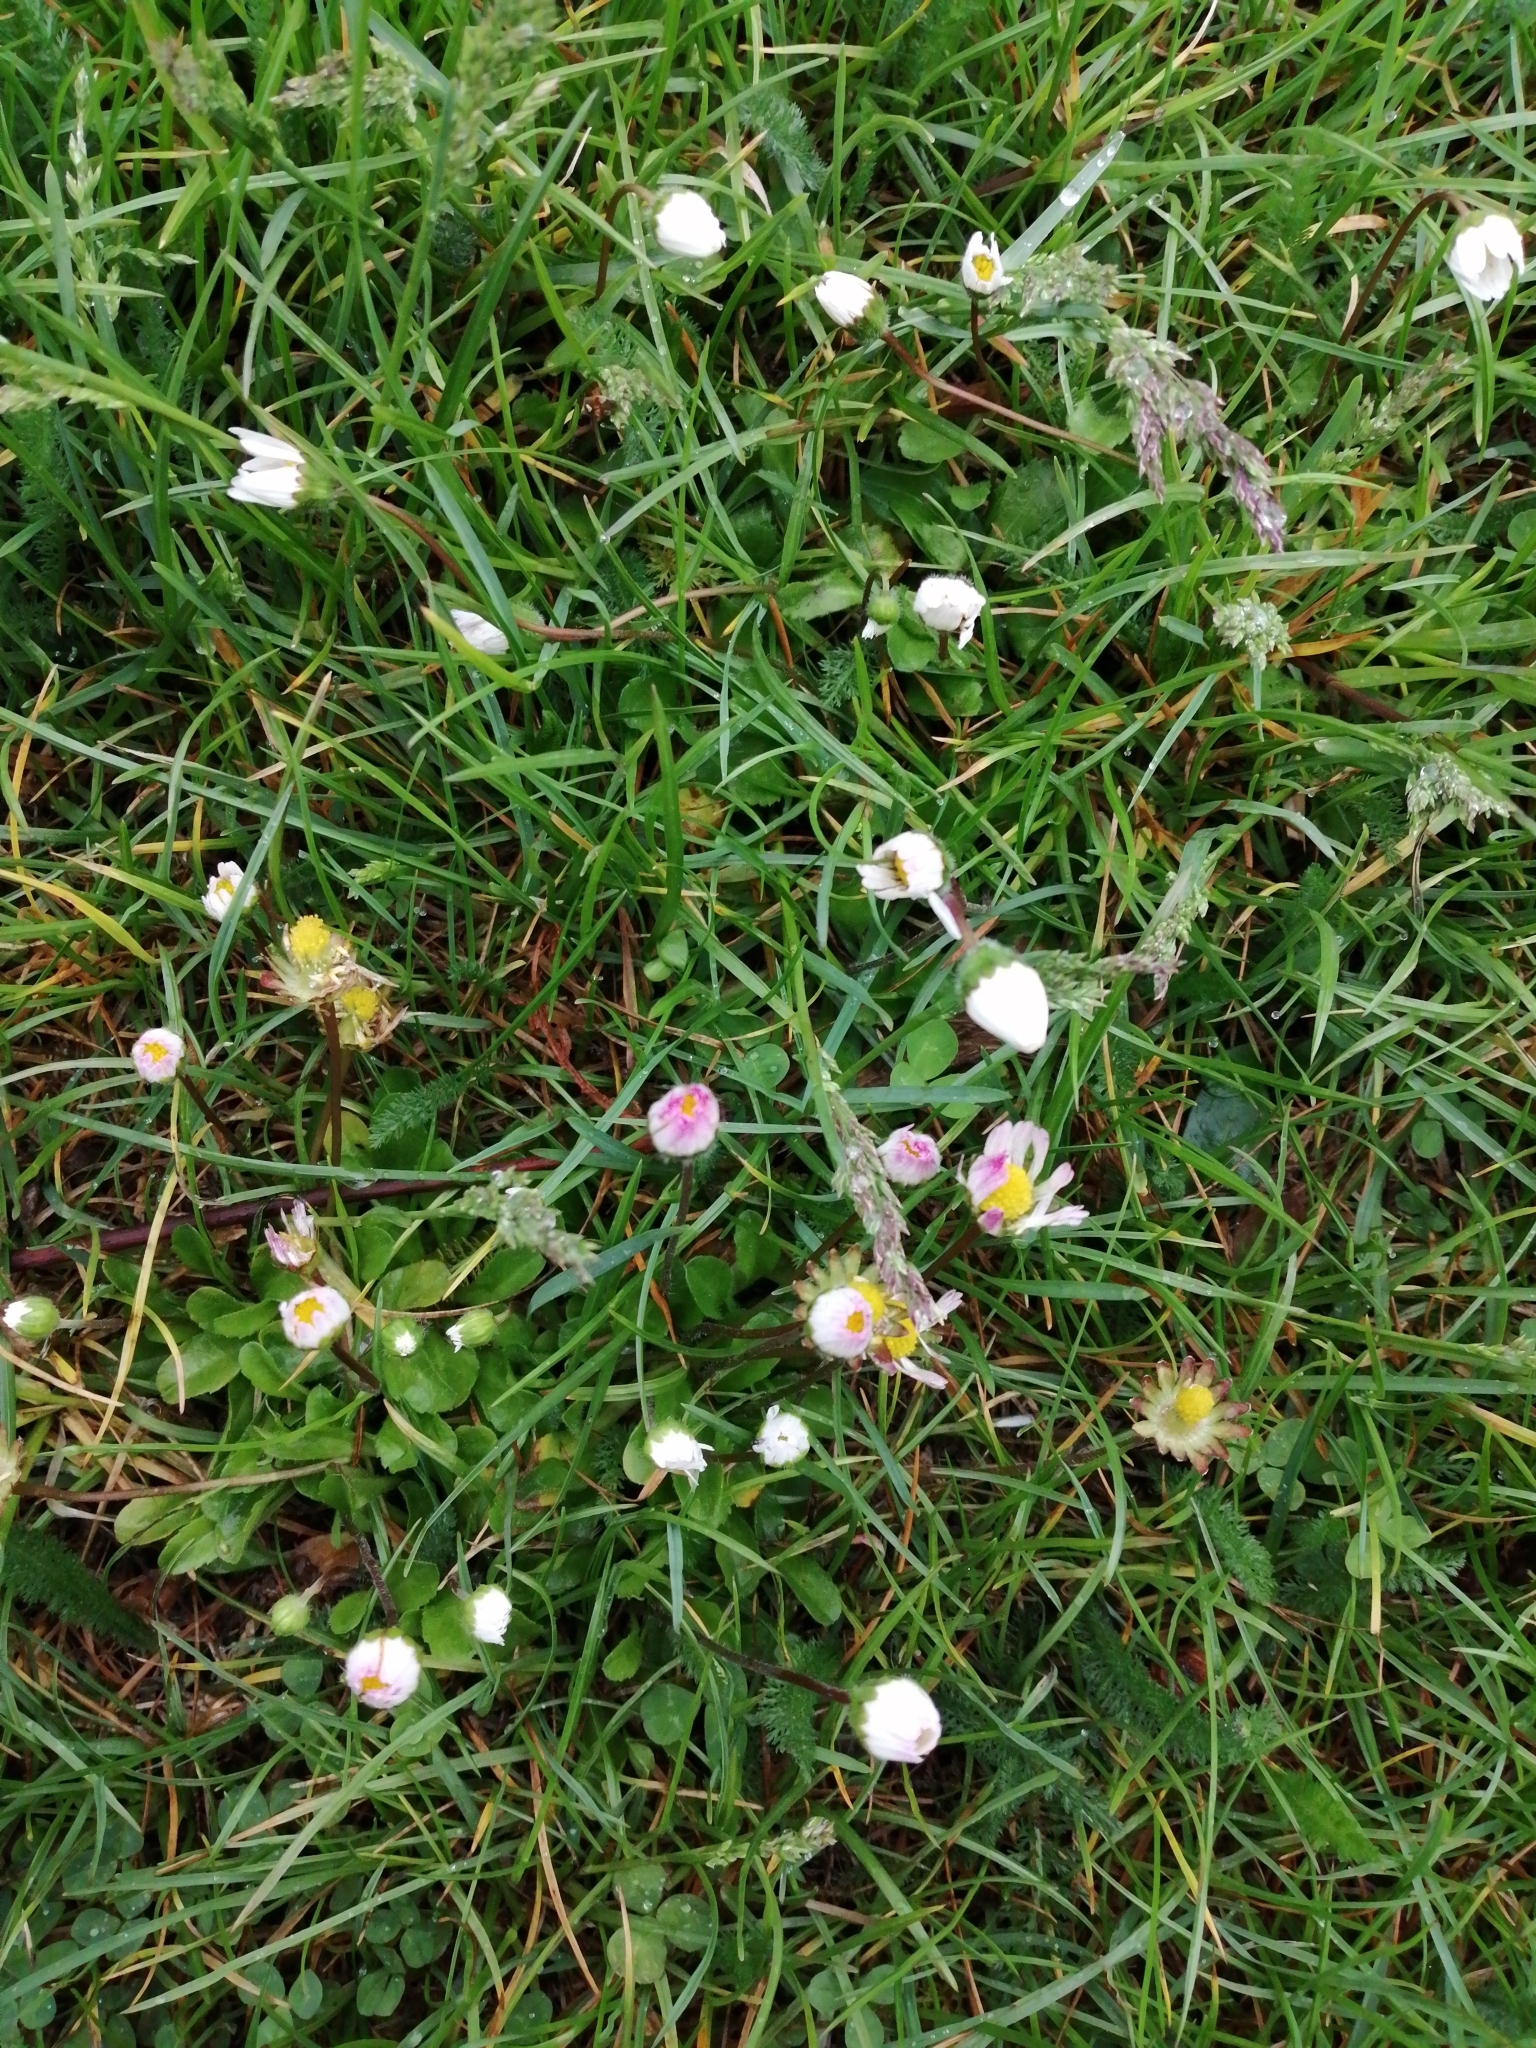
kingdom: Plantae
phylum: Tracheophyta
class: Magnoliopsida
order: Asterales
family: Asteraceae
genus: Bellis
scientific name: Bellis perennis
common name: Lawndaisy
